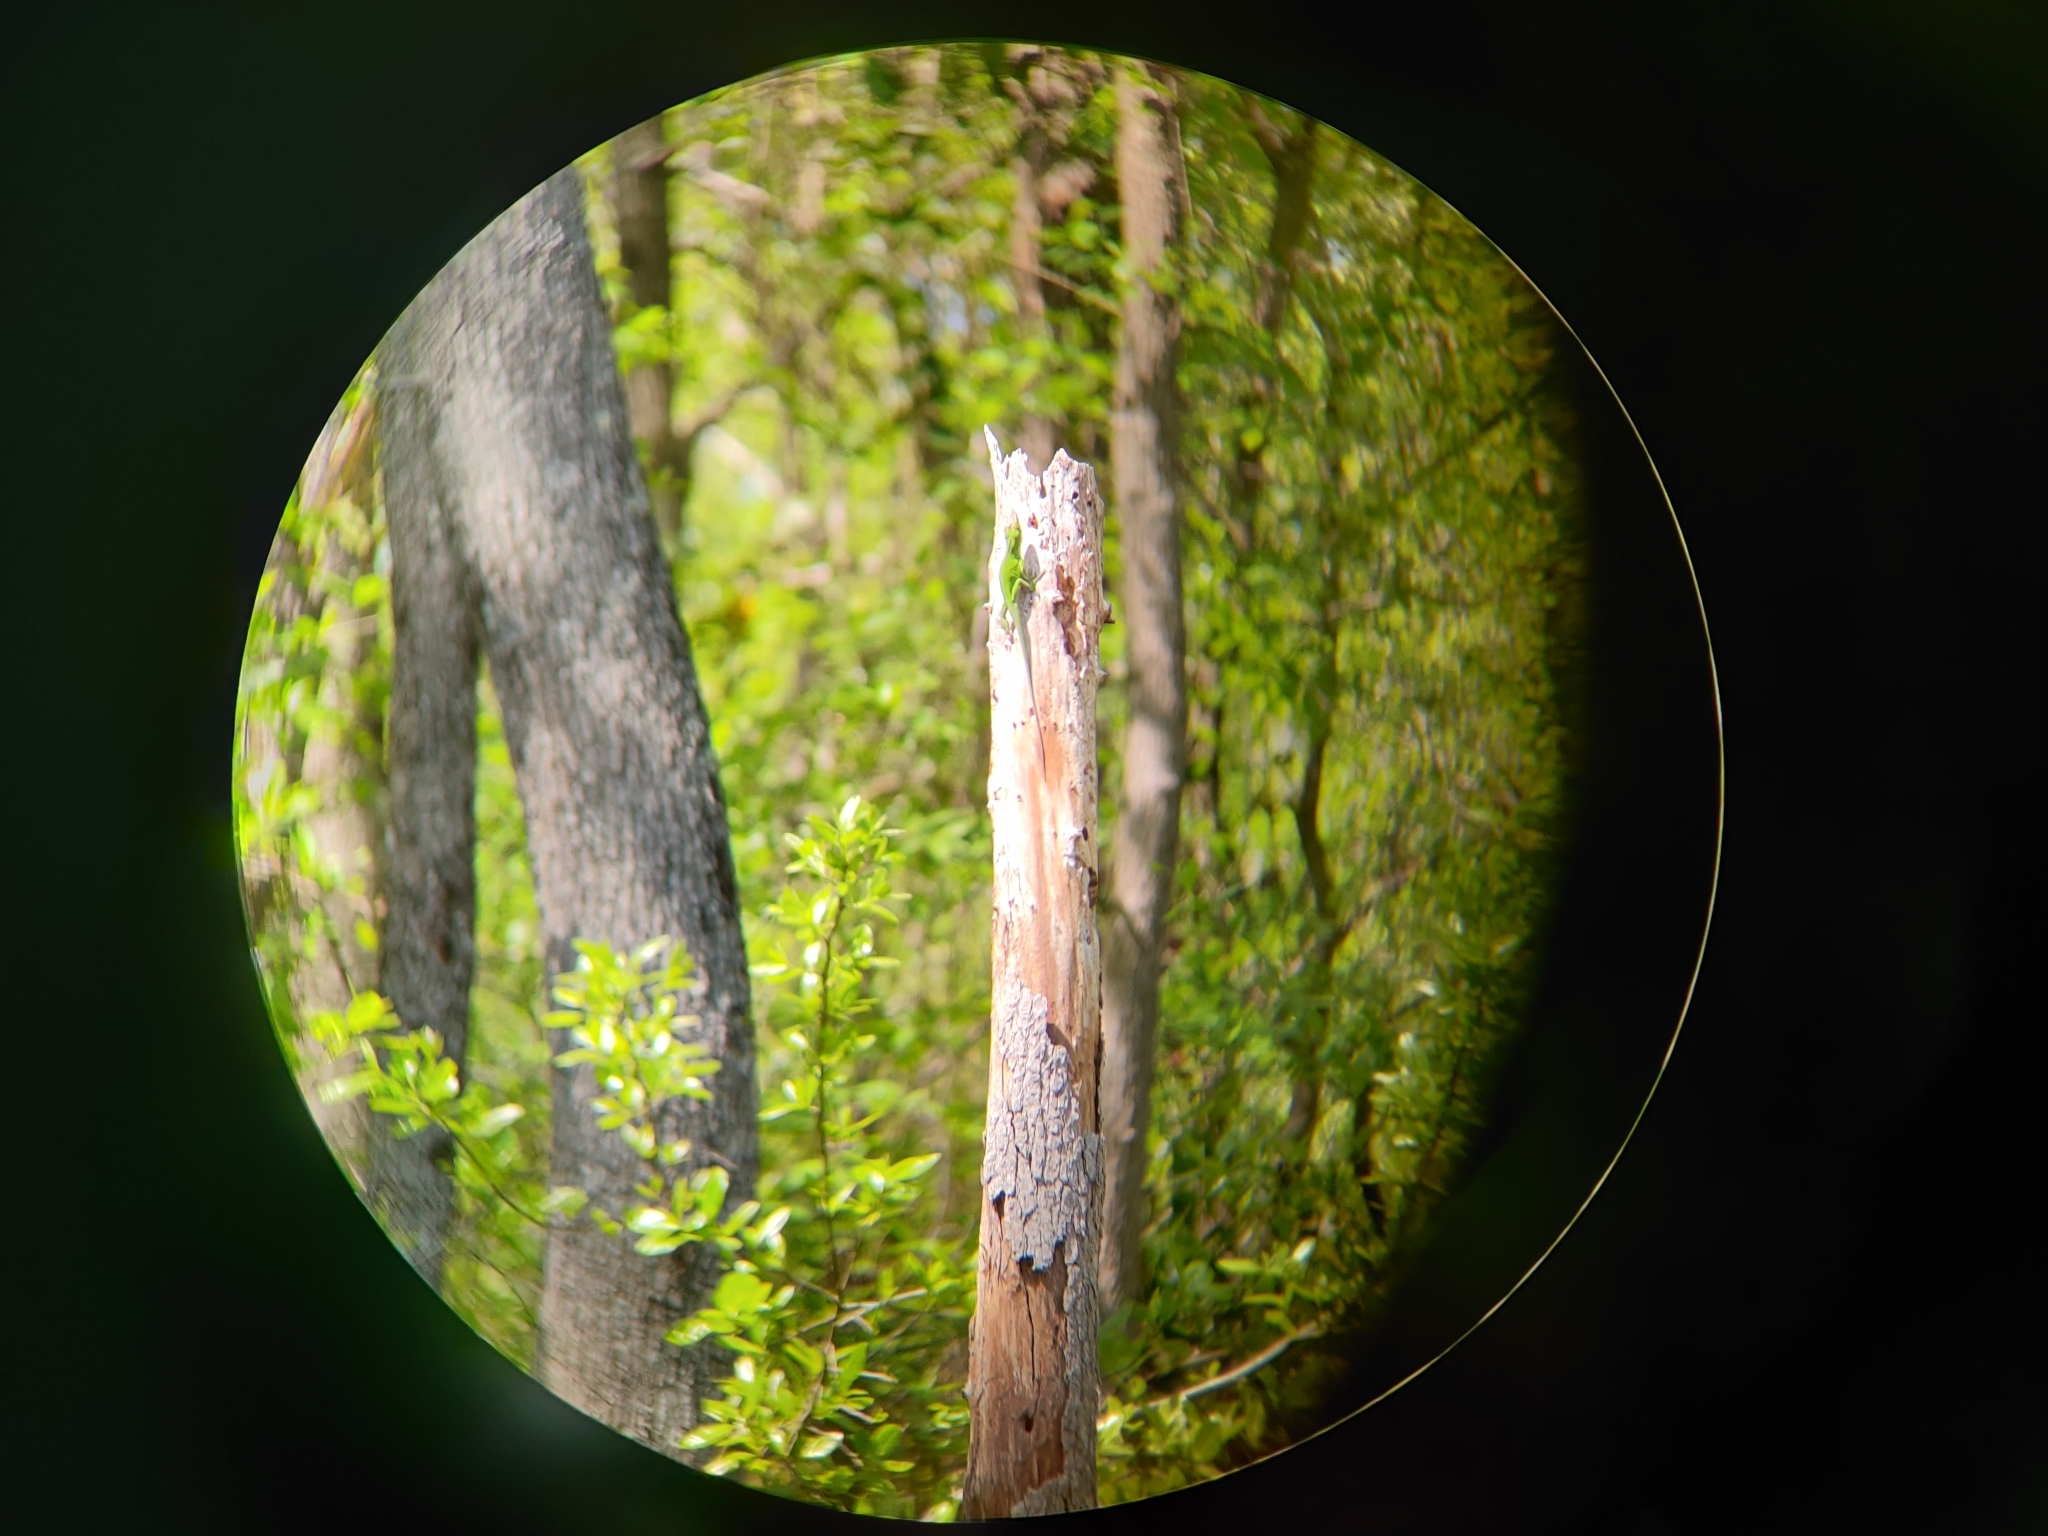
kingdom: Animalia
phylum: Chordata
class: Squamata
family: Dactyloidae
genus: Anolis
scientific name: Anolis carolinensis
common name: Green anole
